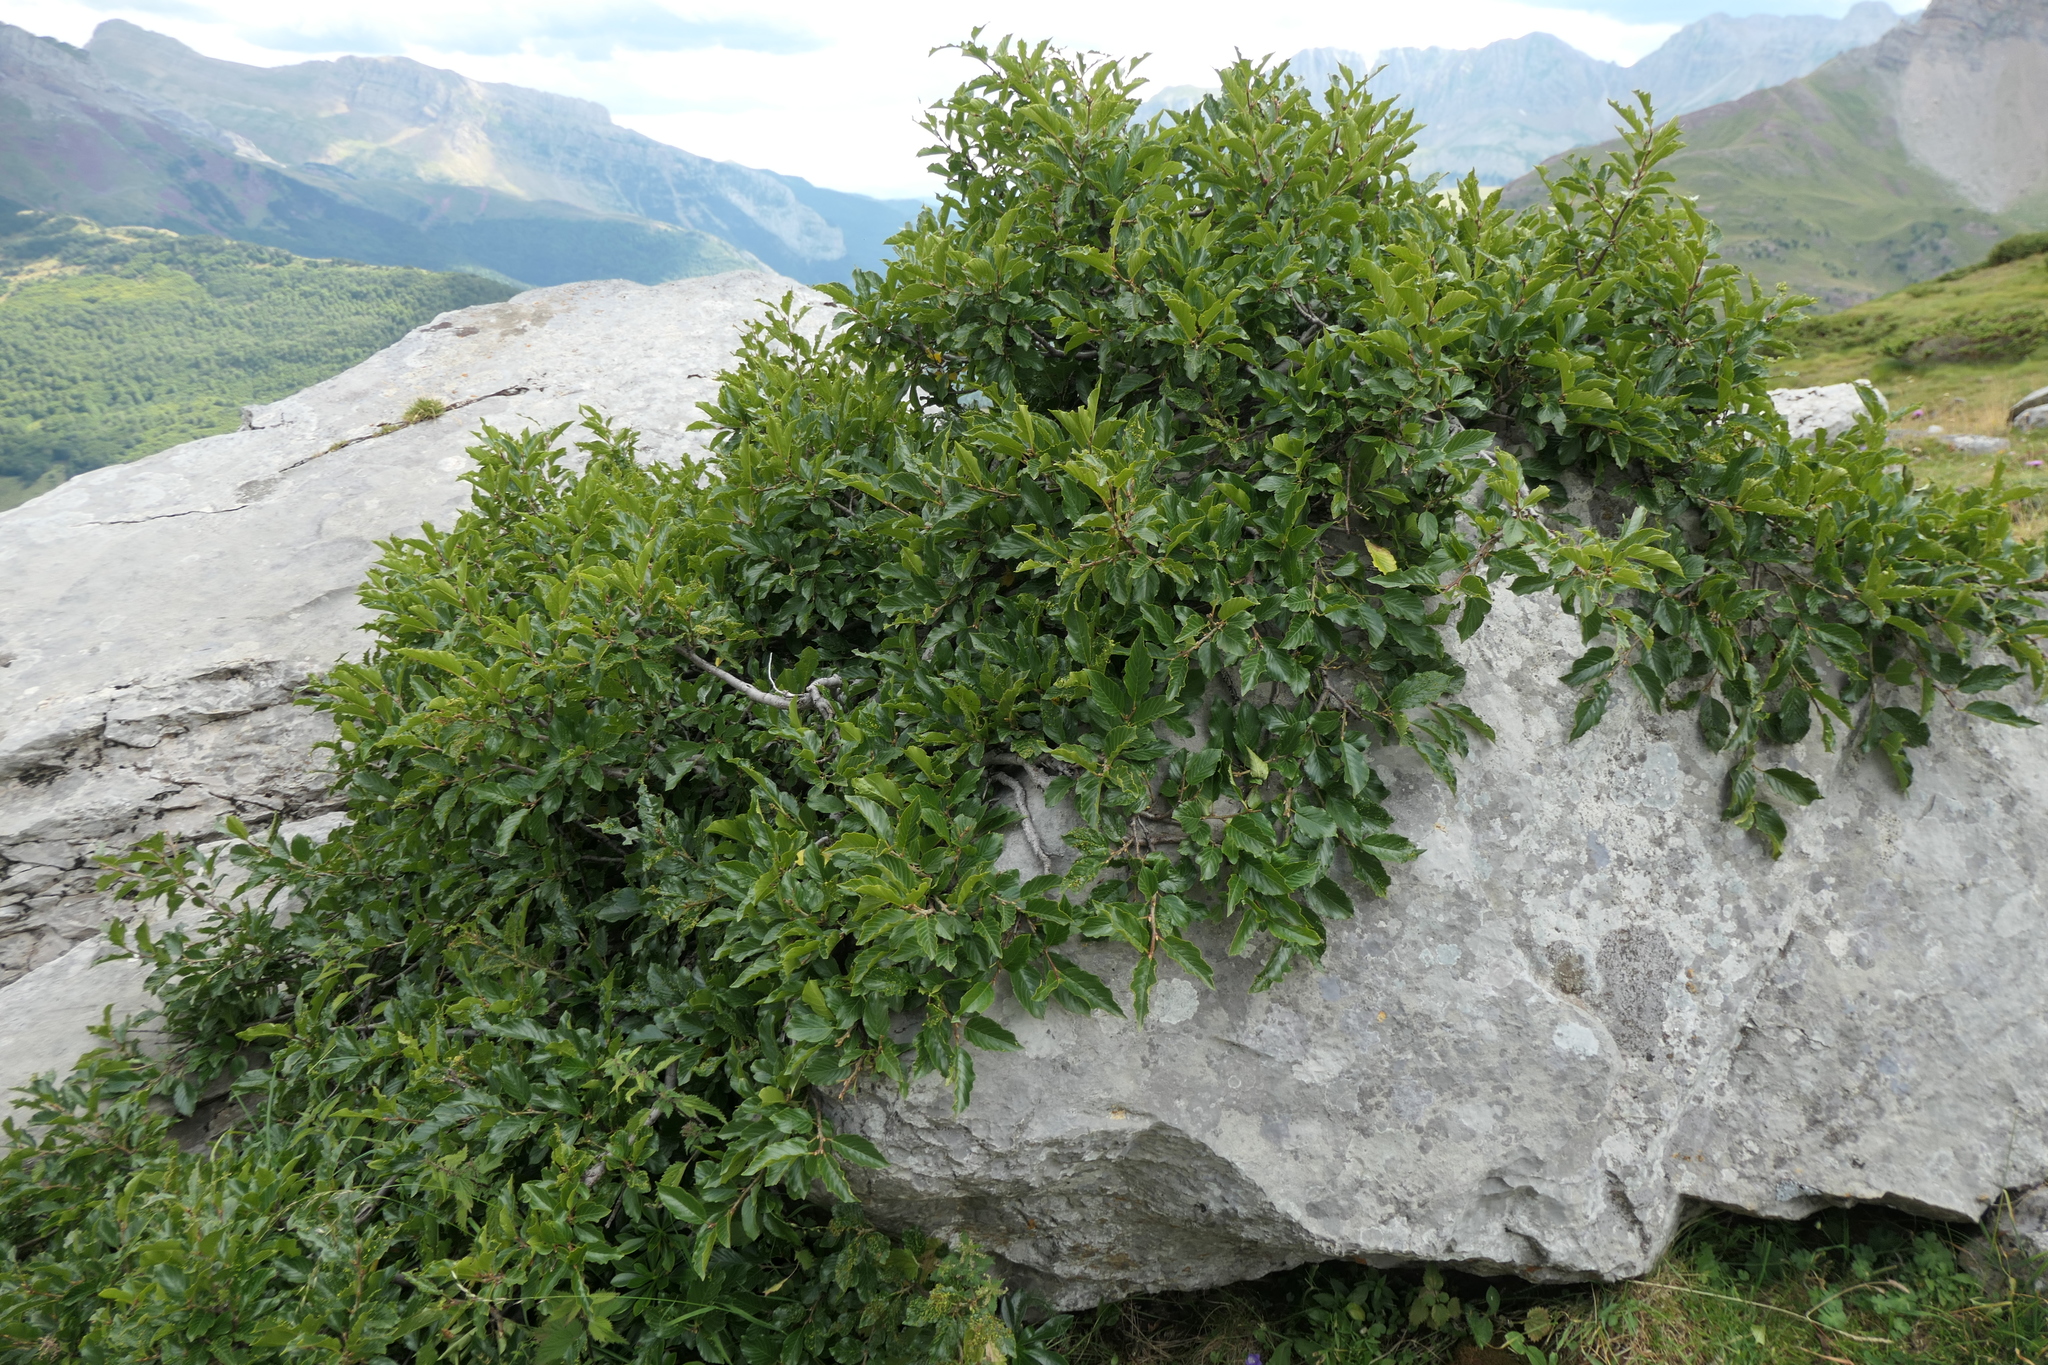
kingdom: Plantae
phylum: Tracheophyta
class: Magnoliopsida
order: Rosales
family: Rhamnaceae
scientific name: Rhamnaceae
